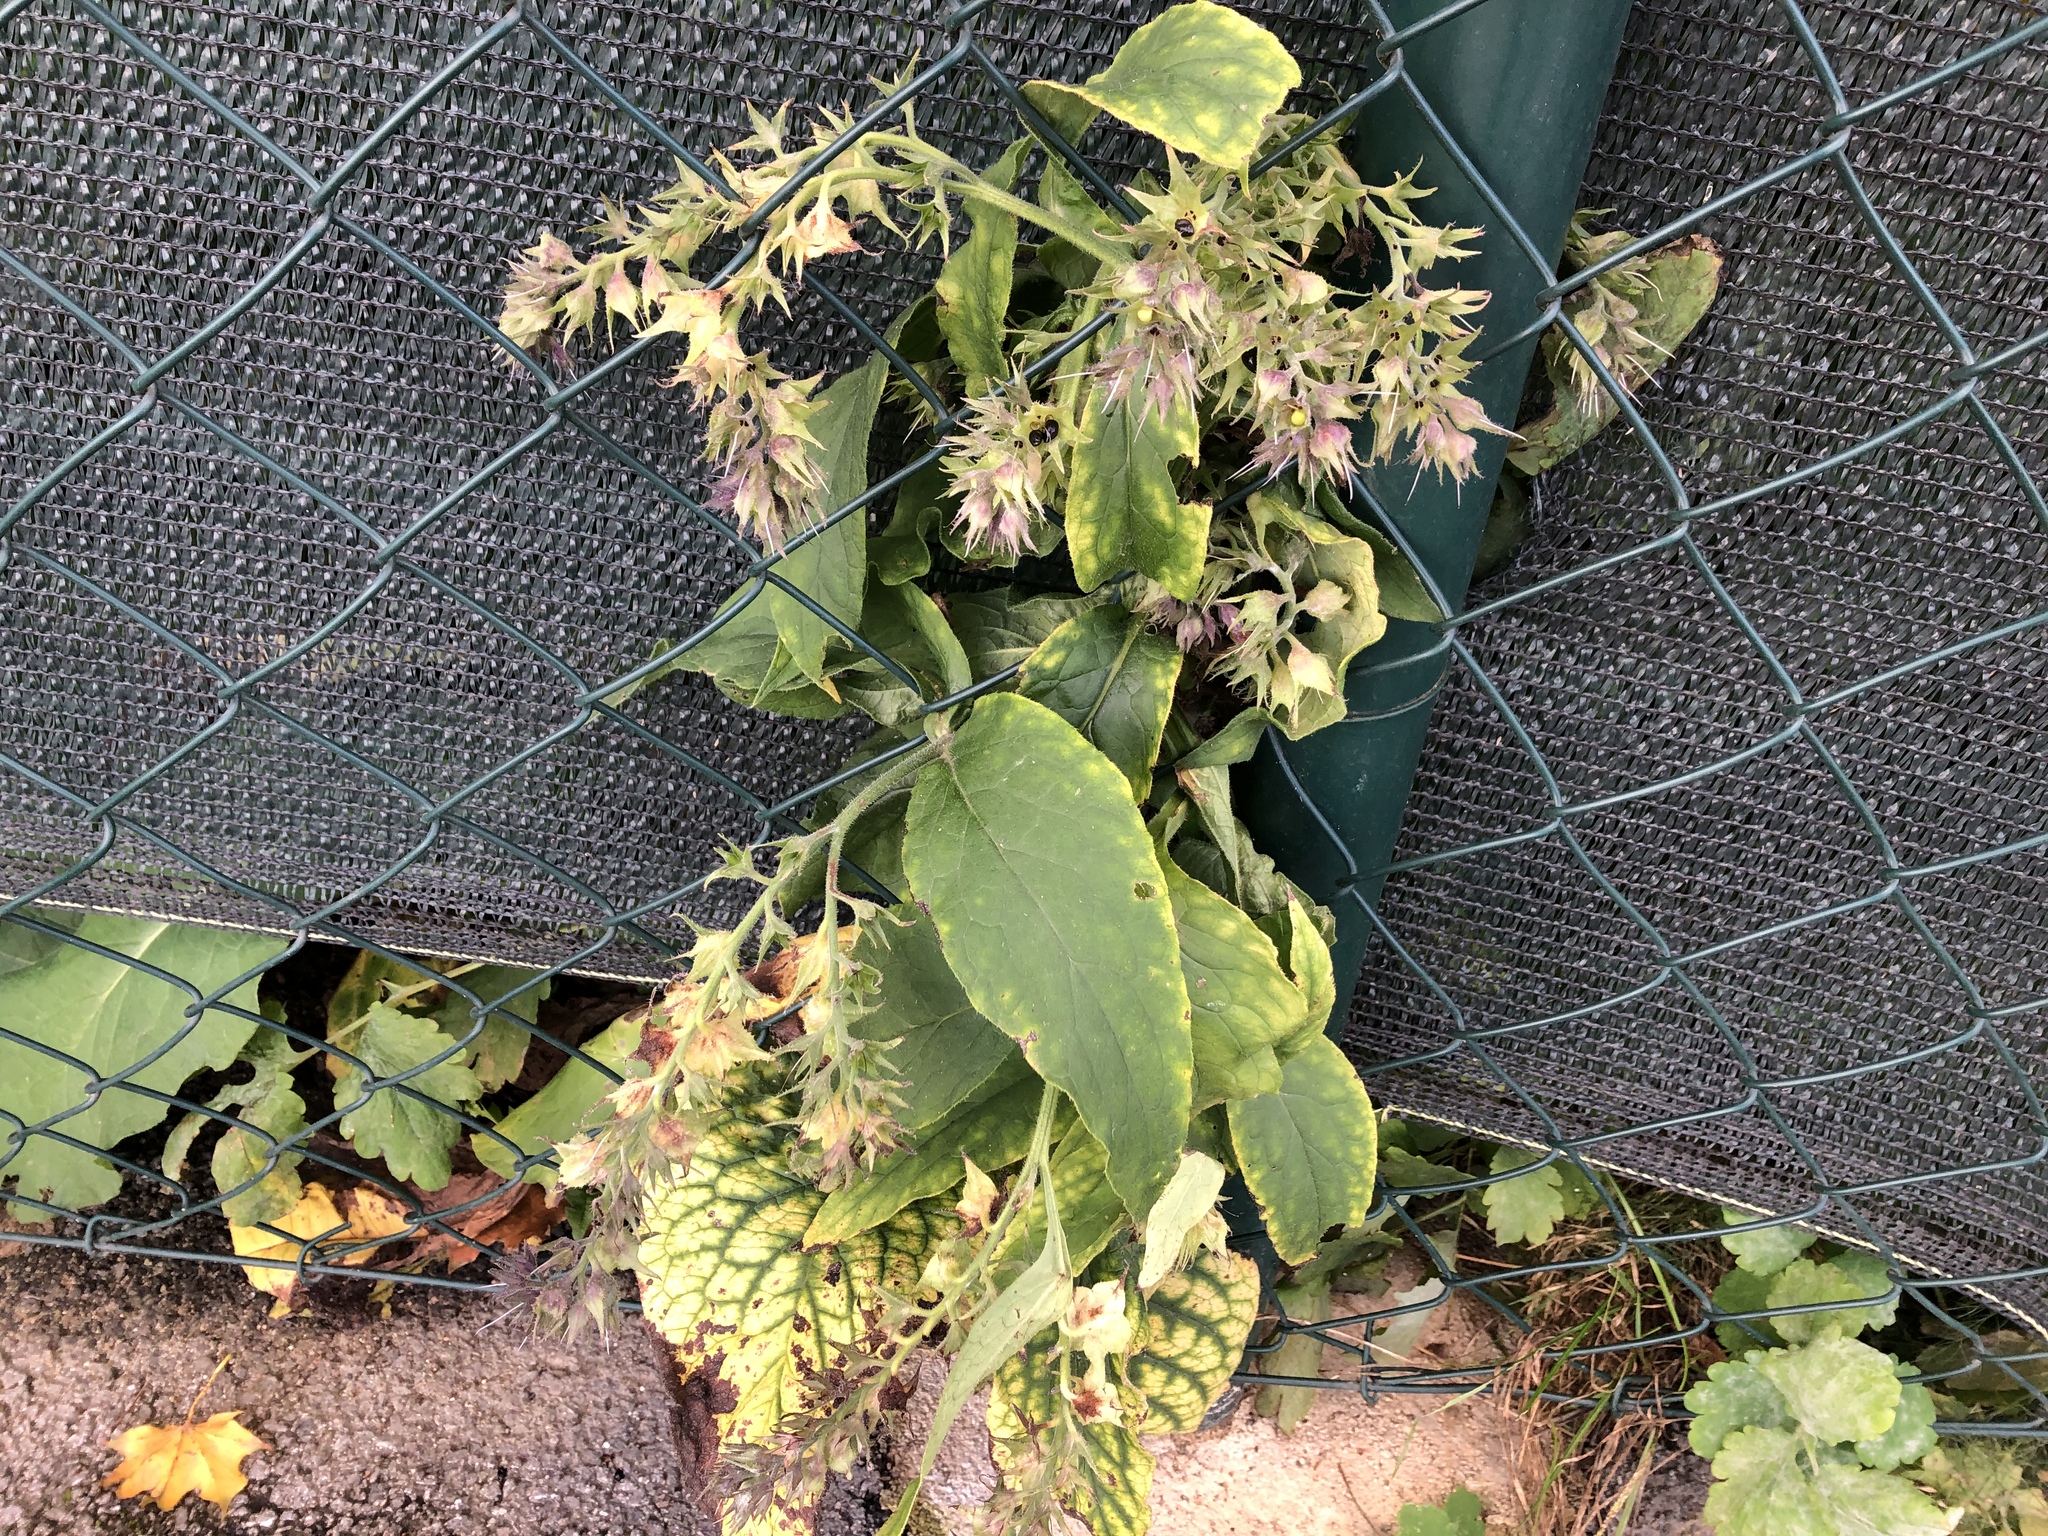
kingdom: Plantae
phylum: Tracheophyta
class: Magnoliopsida
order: Boraginales
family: Boraginaceae
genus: Symphytum
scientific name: Symphytum officinale
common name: Common comfrey
